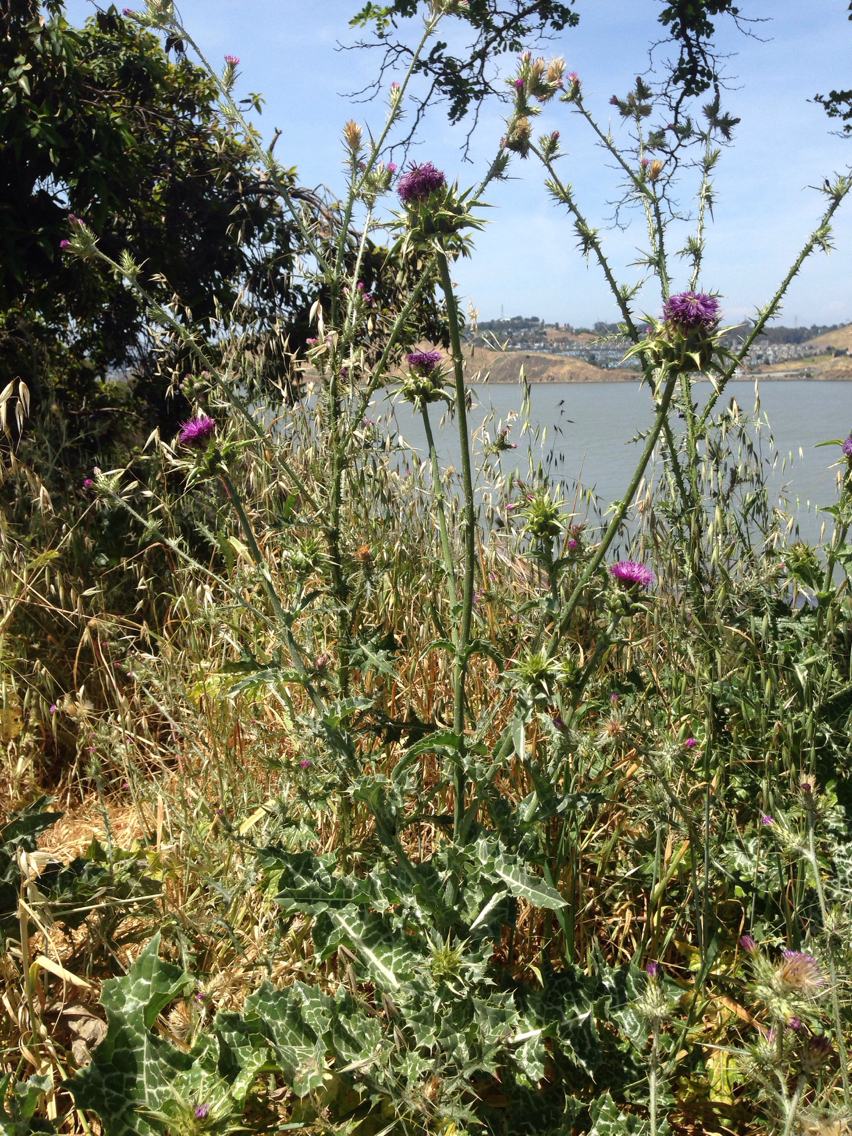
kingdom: Plantae
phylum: Tracheophyta
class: Magnoliopsida
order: Asterales
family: Asteraceae
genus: Silybum
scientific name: Silybum marianum
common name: Milk thistle
